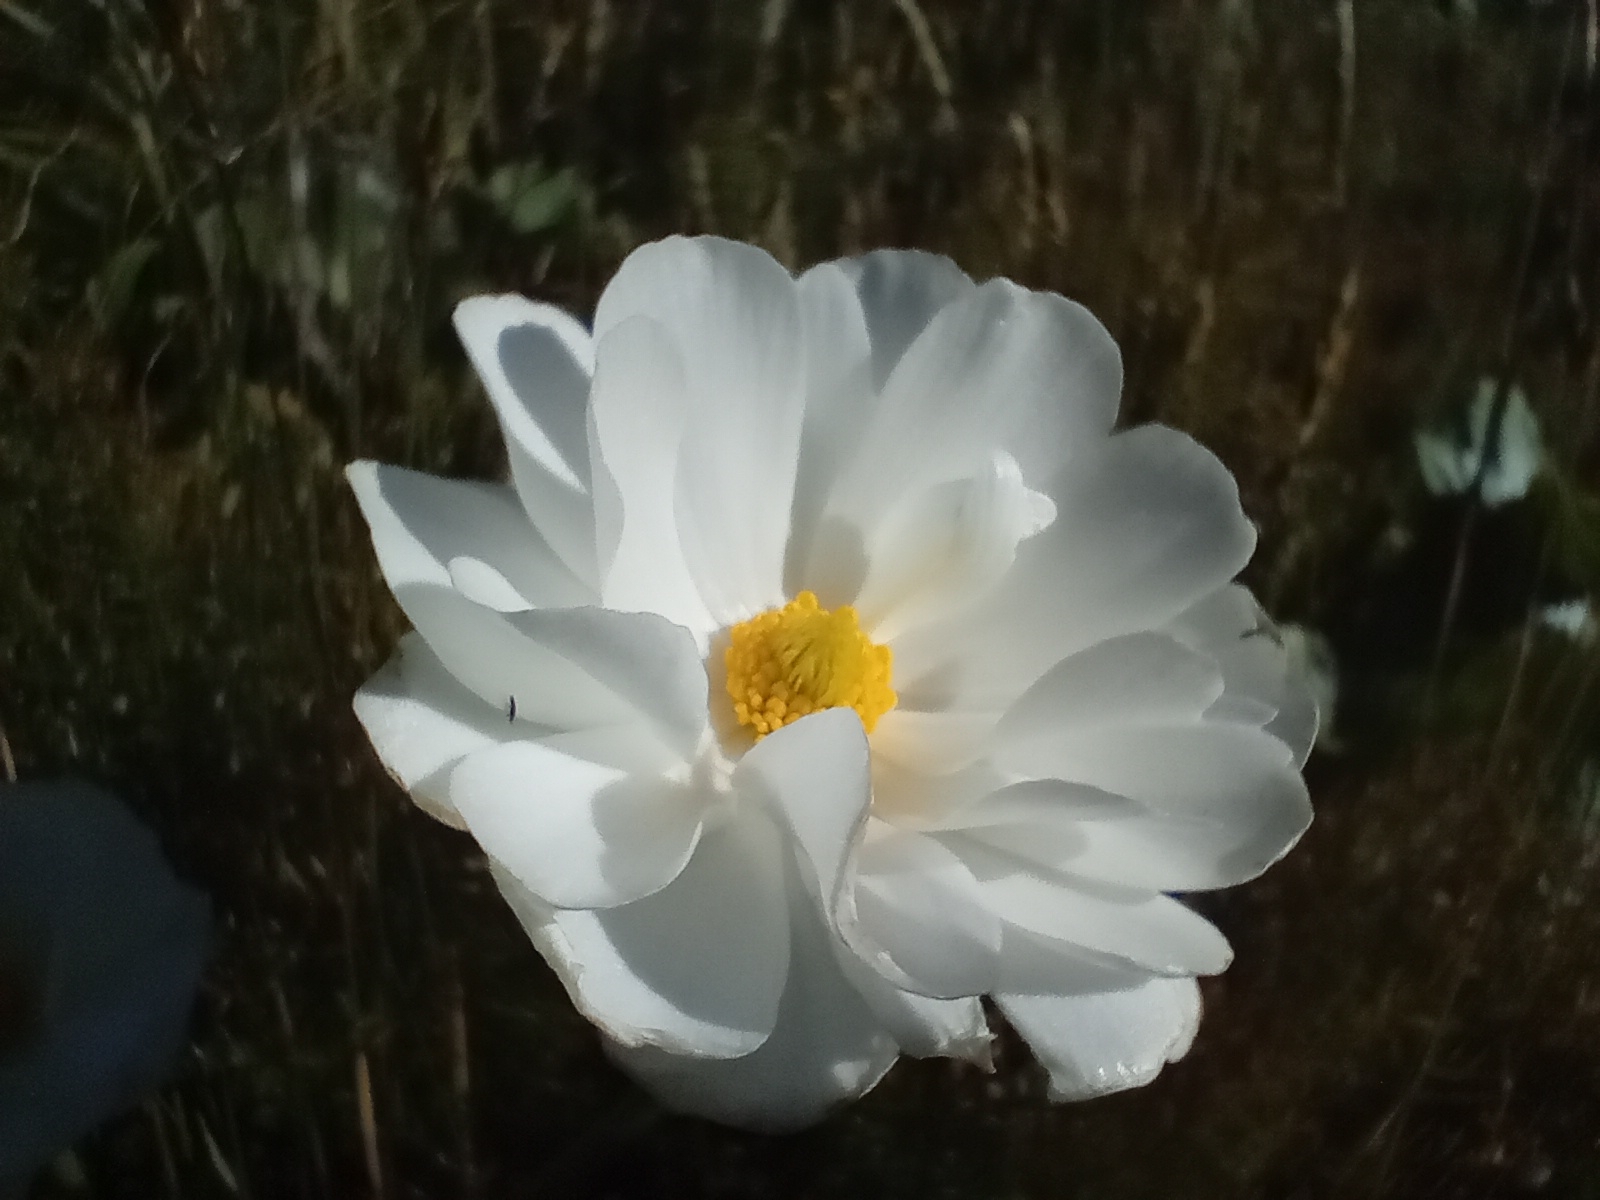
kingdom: Plantae
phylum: Tracheophyta
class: Magnoliopsida
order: Ranunculales
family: Ranunculaceae
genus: Ranunculus
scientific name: Ranunculus lyallii
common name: Mountain-lily
